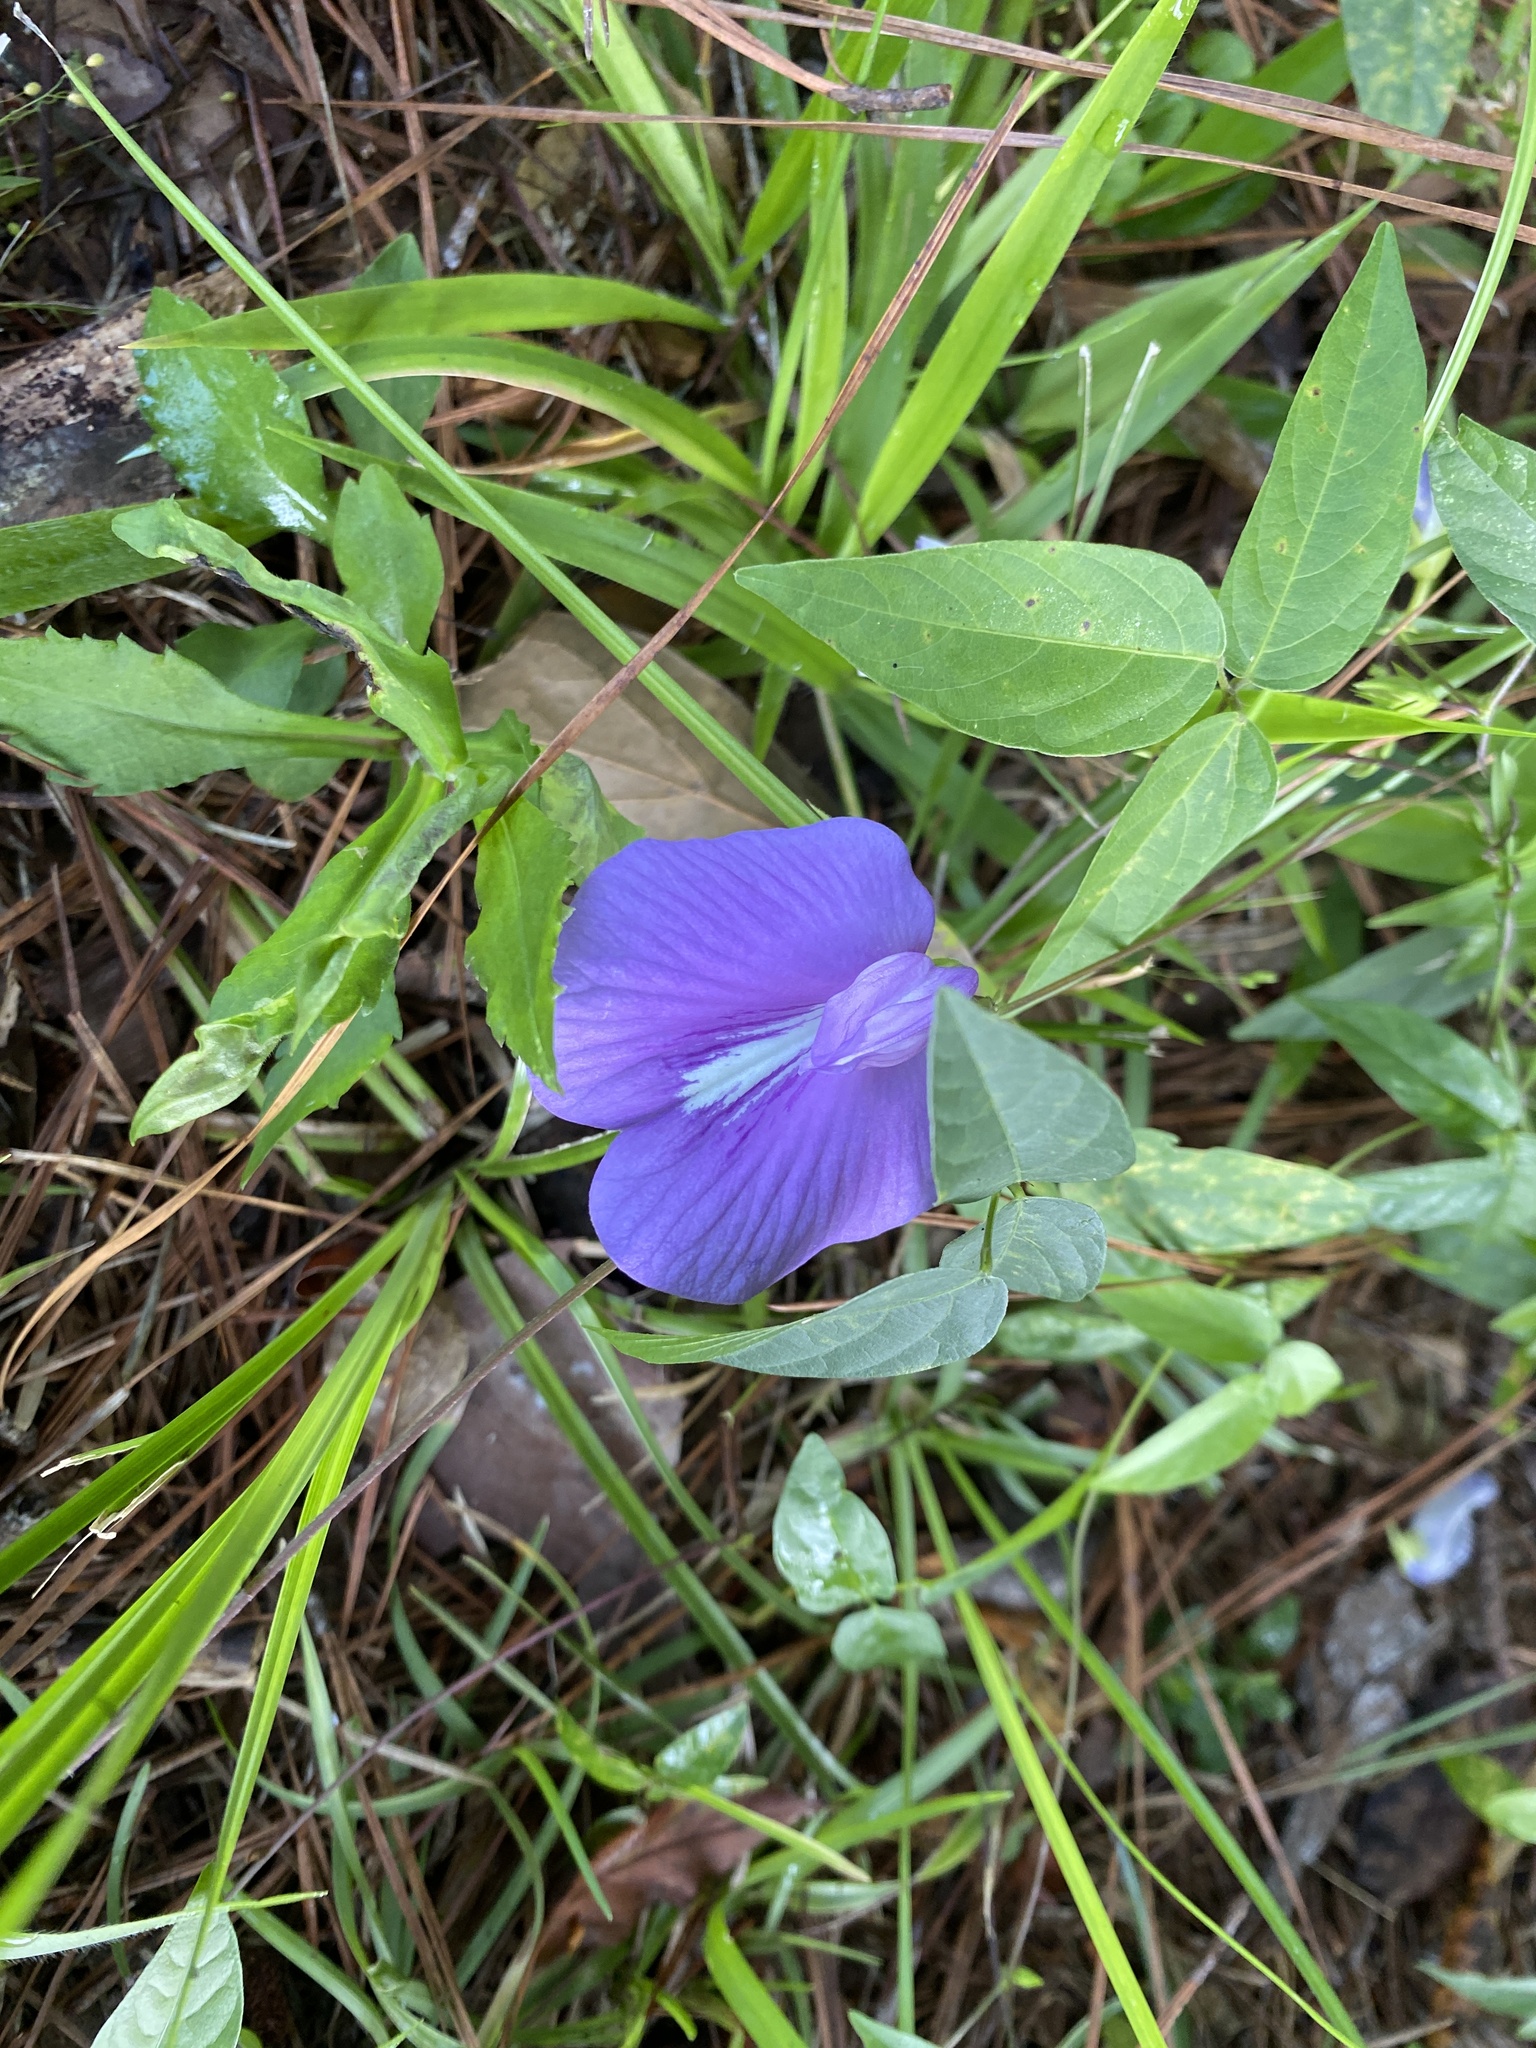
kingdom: Plantae
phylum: Tracheophyta
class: Magnoliopsida
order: Fabales
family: Fabaceae
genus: Centrosema
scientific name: Centrosema virginianum
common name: Butterfly-pea
